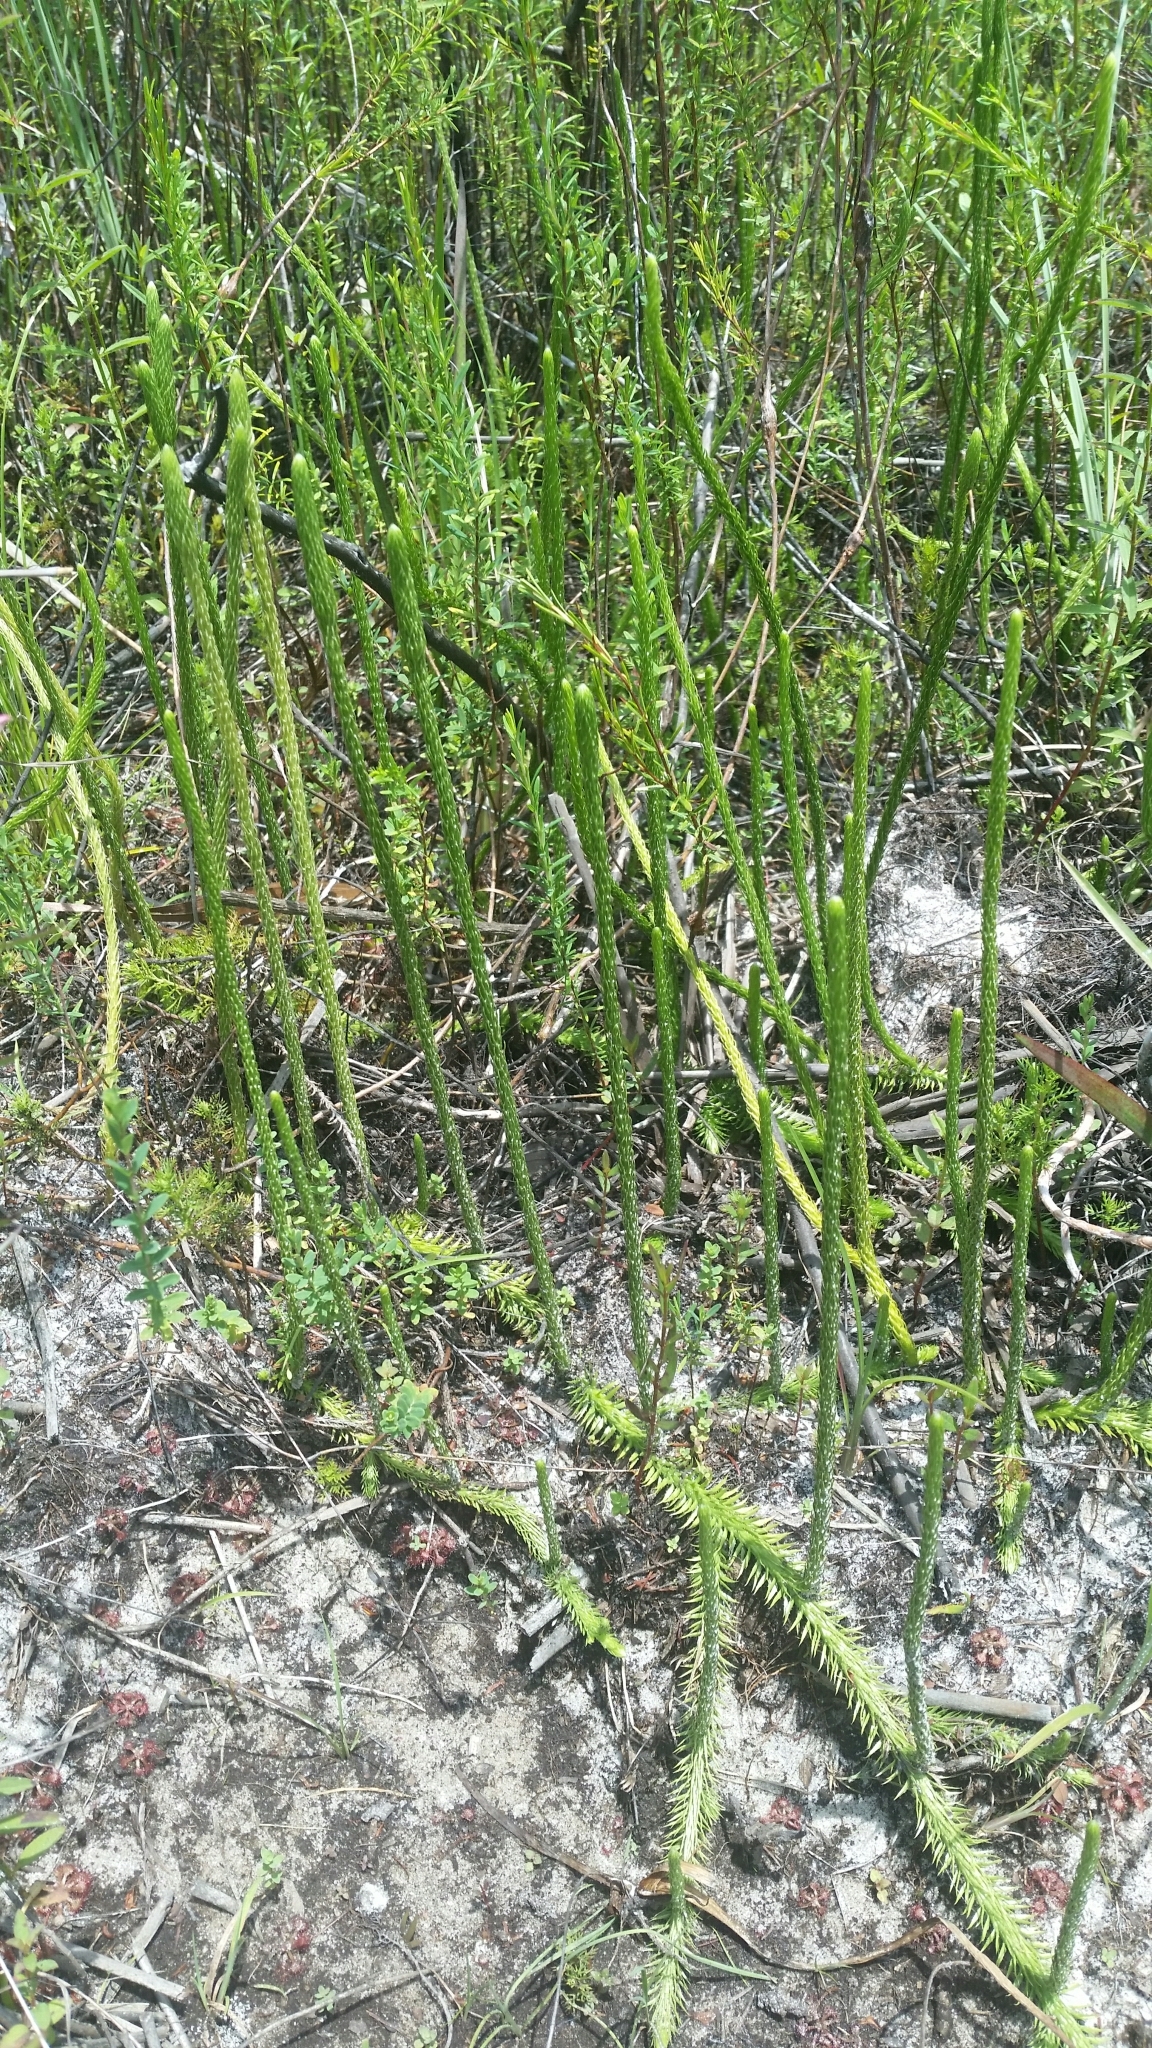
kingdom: Plantae
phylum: Tracheophyta
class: Lycopodiopsida
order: Lycopodiales
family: Lycopodiaceae
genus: Lycopodiella
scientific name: Lycopodiella appressa
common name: Appressed bog clubmoss
